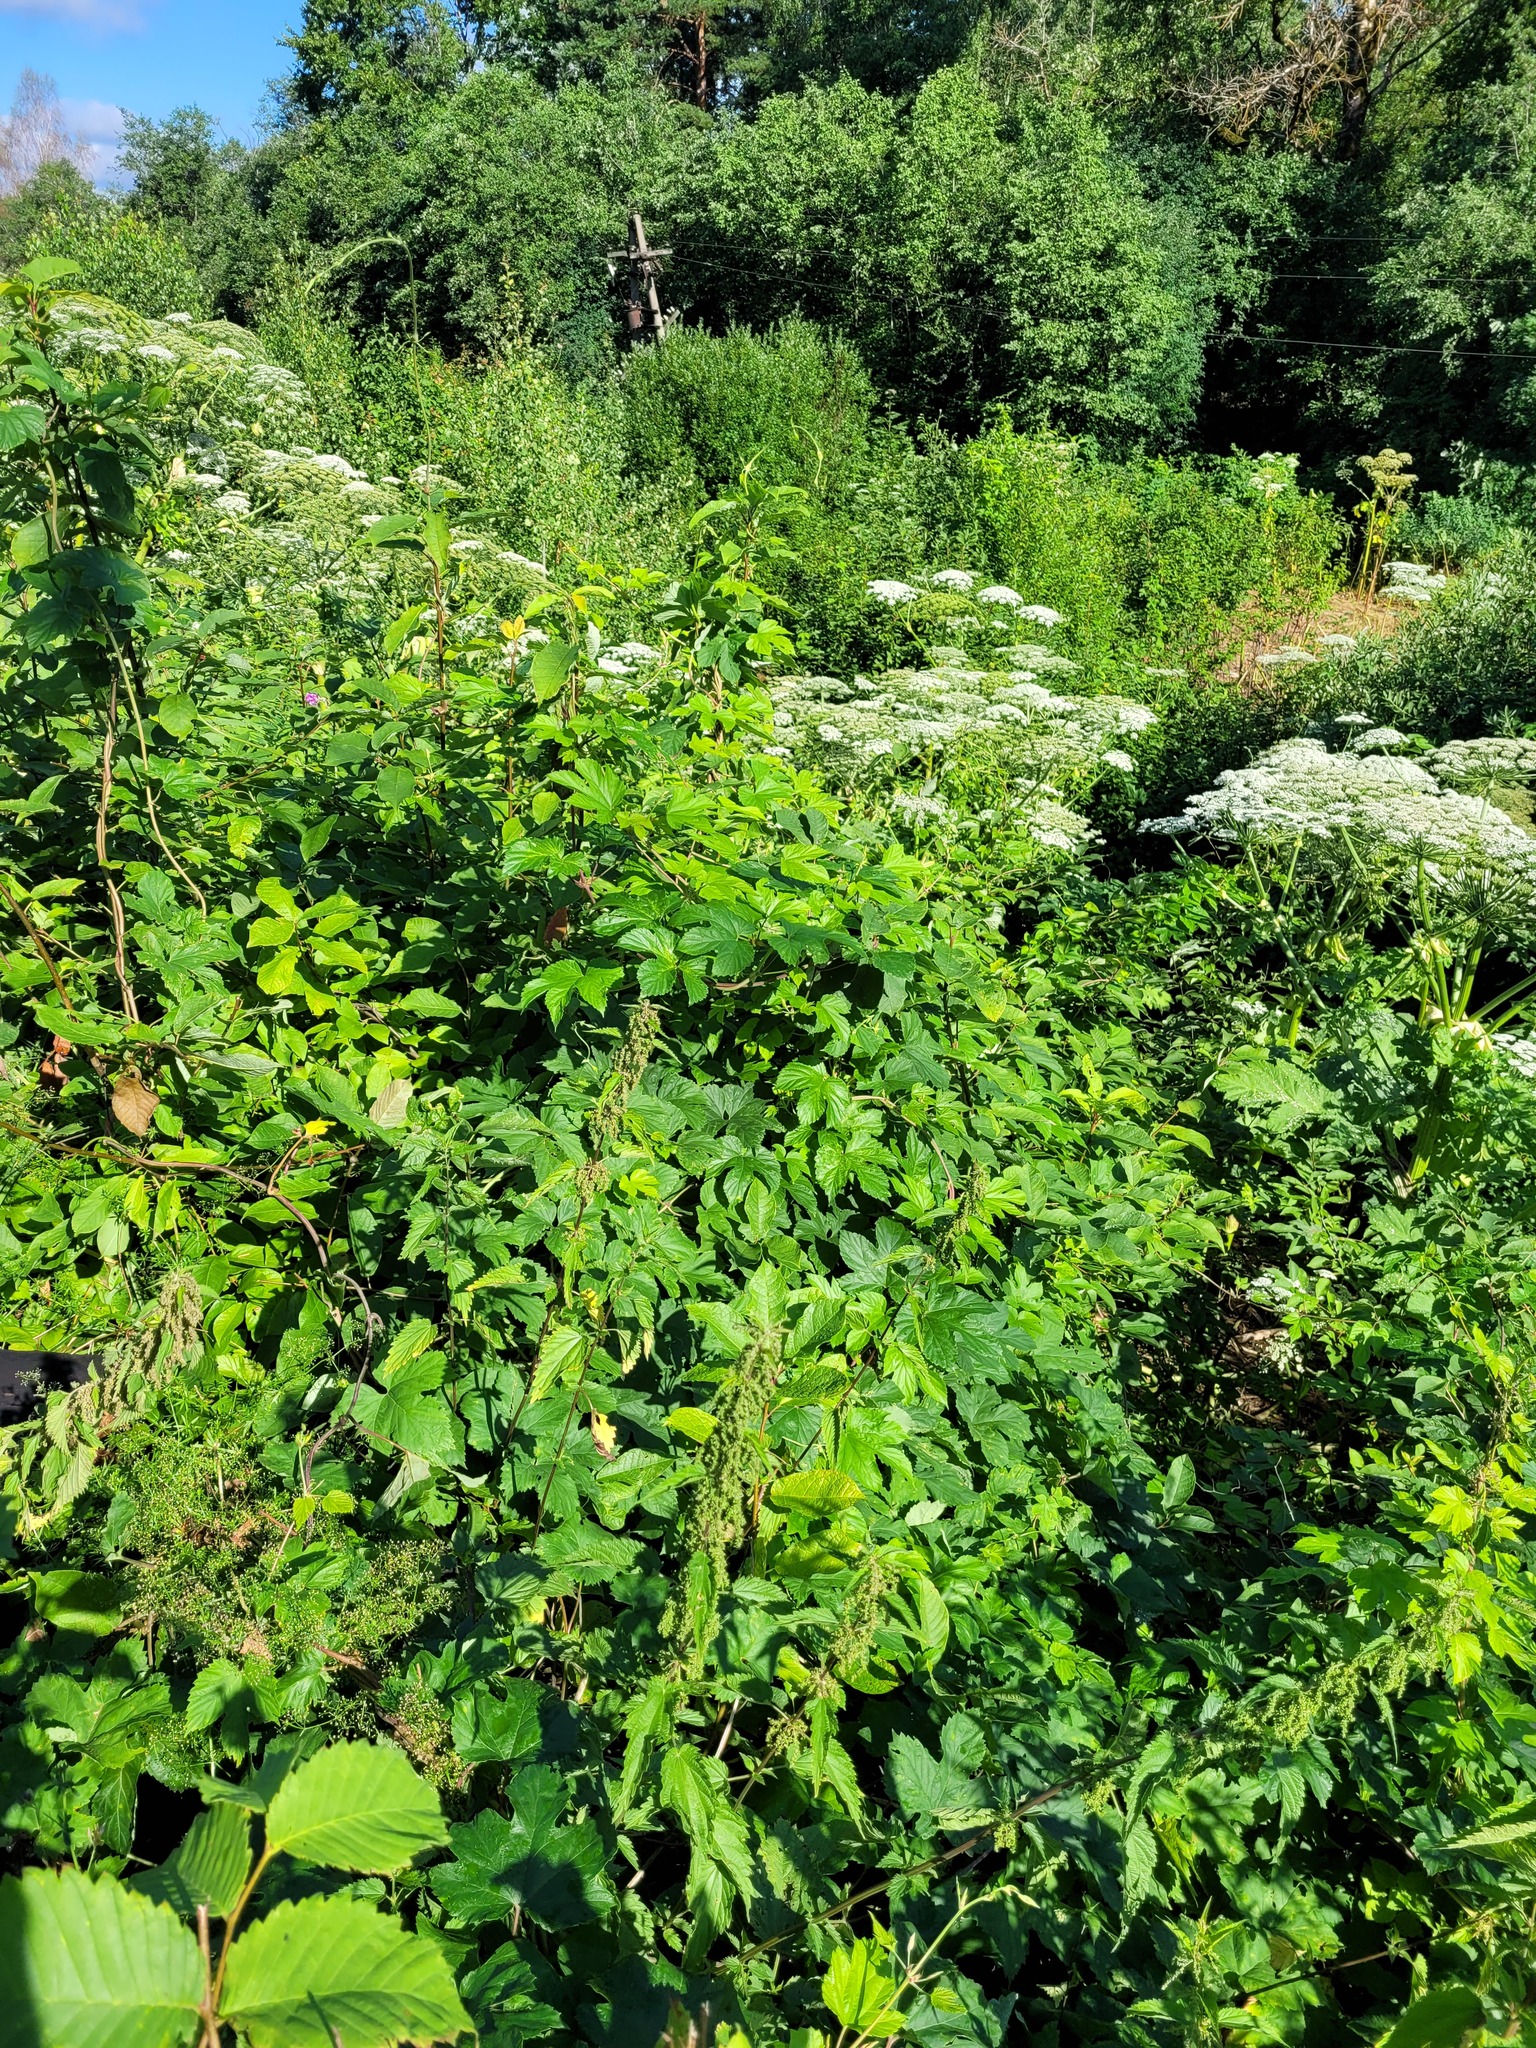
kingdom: Plantae
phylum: Tracheophyta
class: Magnoliopsida
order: Rosales
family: Cannabaceae
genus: Humulus
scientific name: Humulus lupulus
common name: Hop
